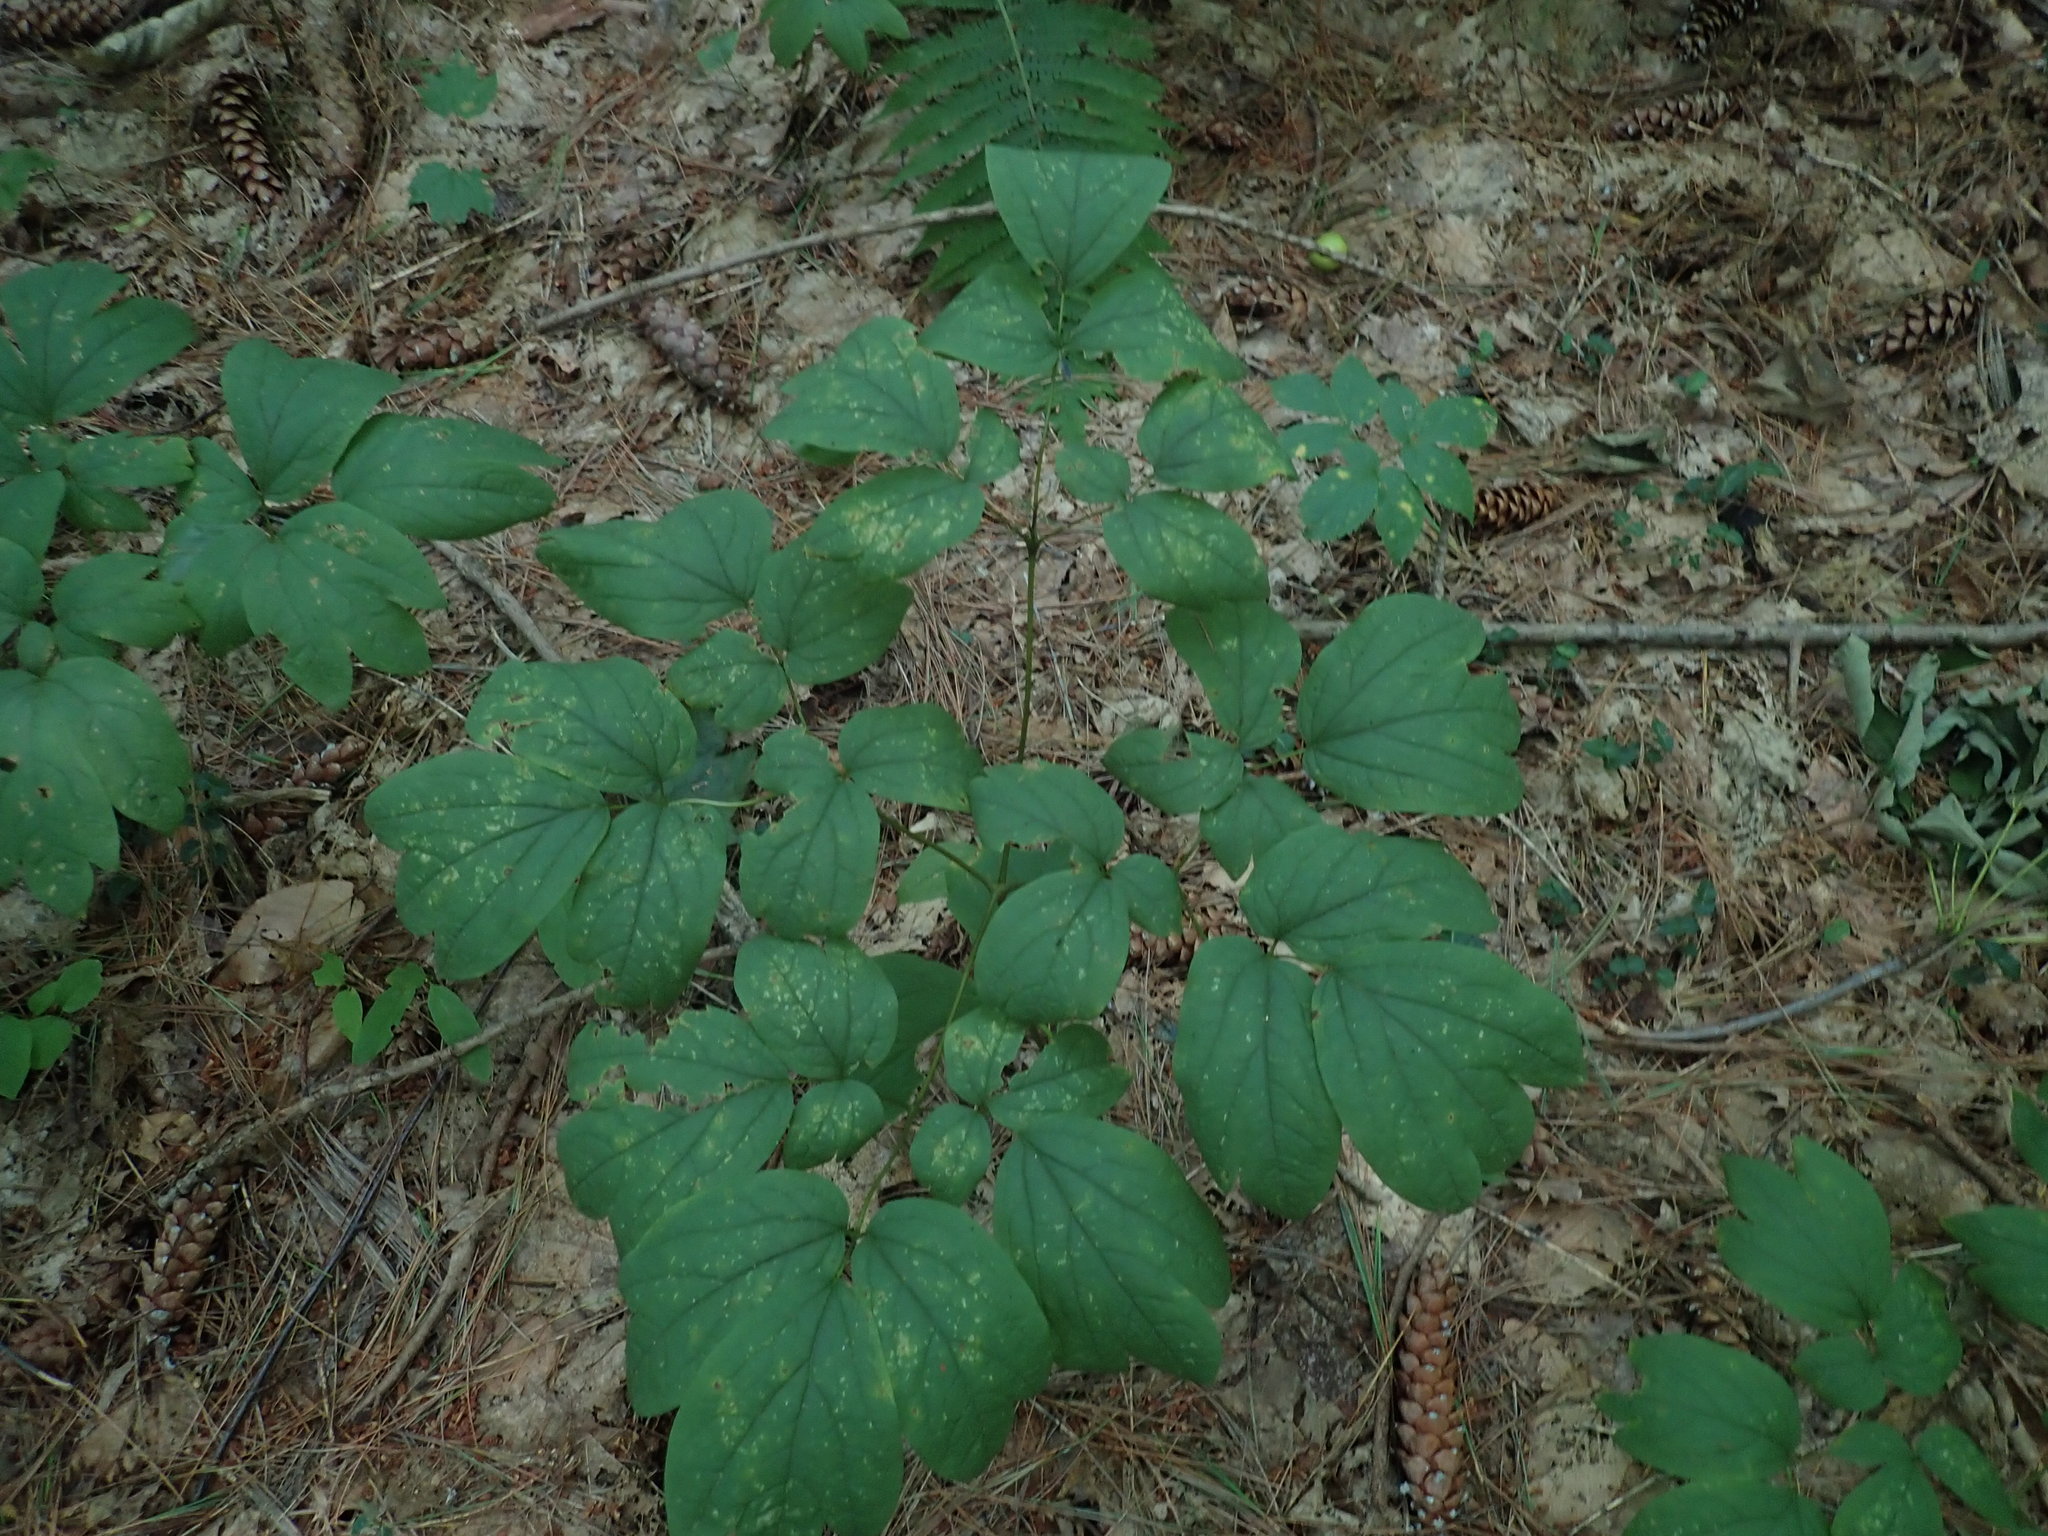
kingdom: Plantae
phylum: Tracheophyta
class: Magnoliopsida
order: Ranunculales
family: Berberidaceae
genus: Caulophyllum
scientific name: Caulophyllum
